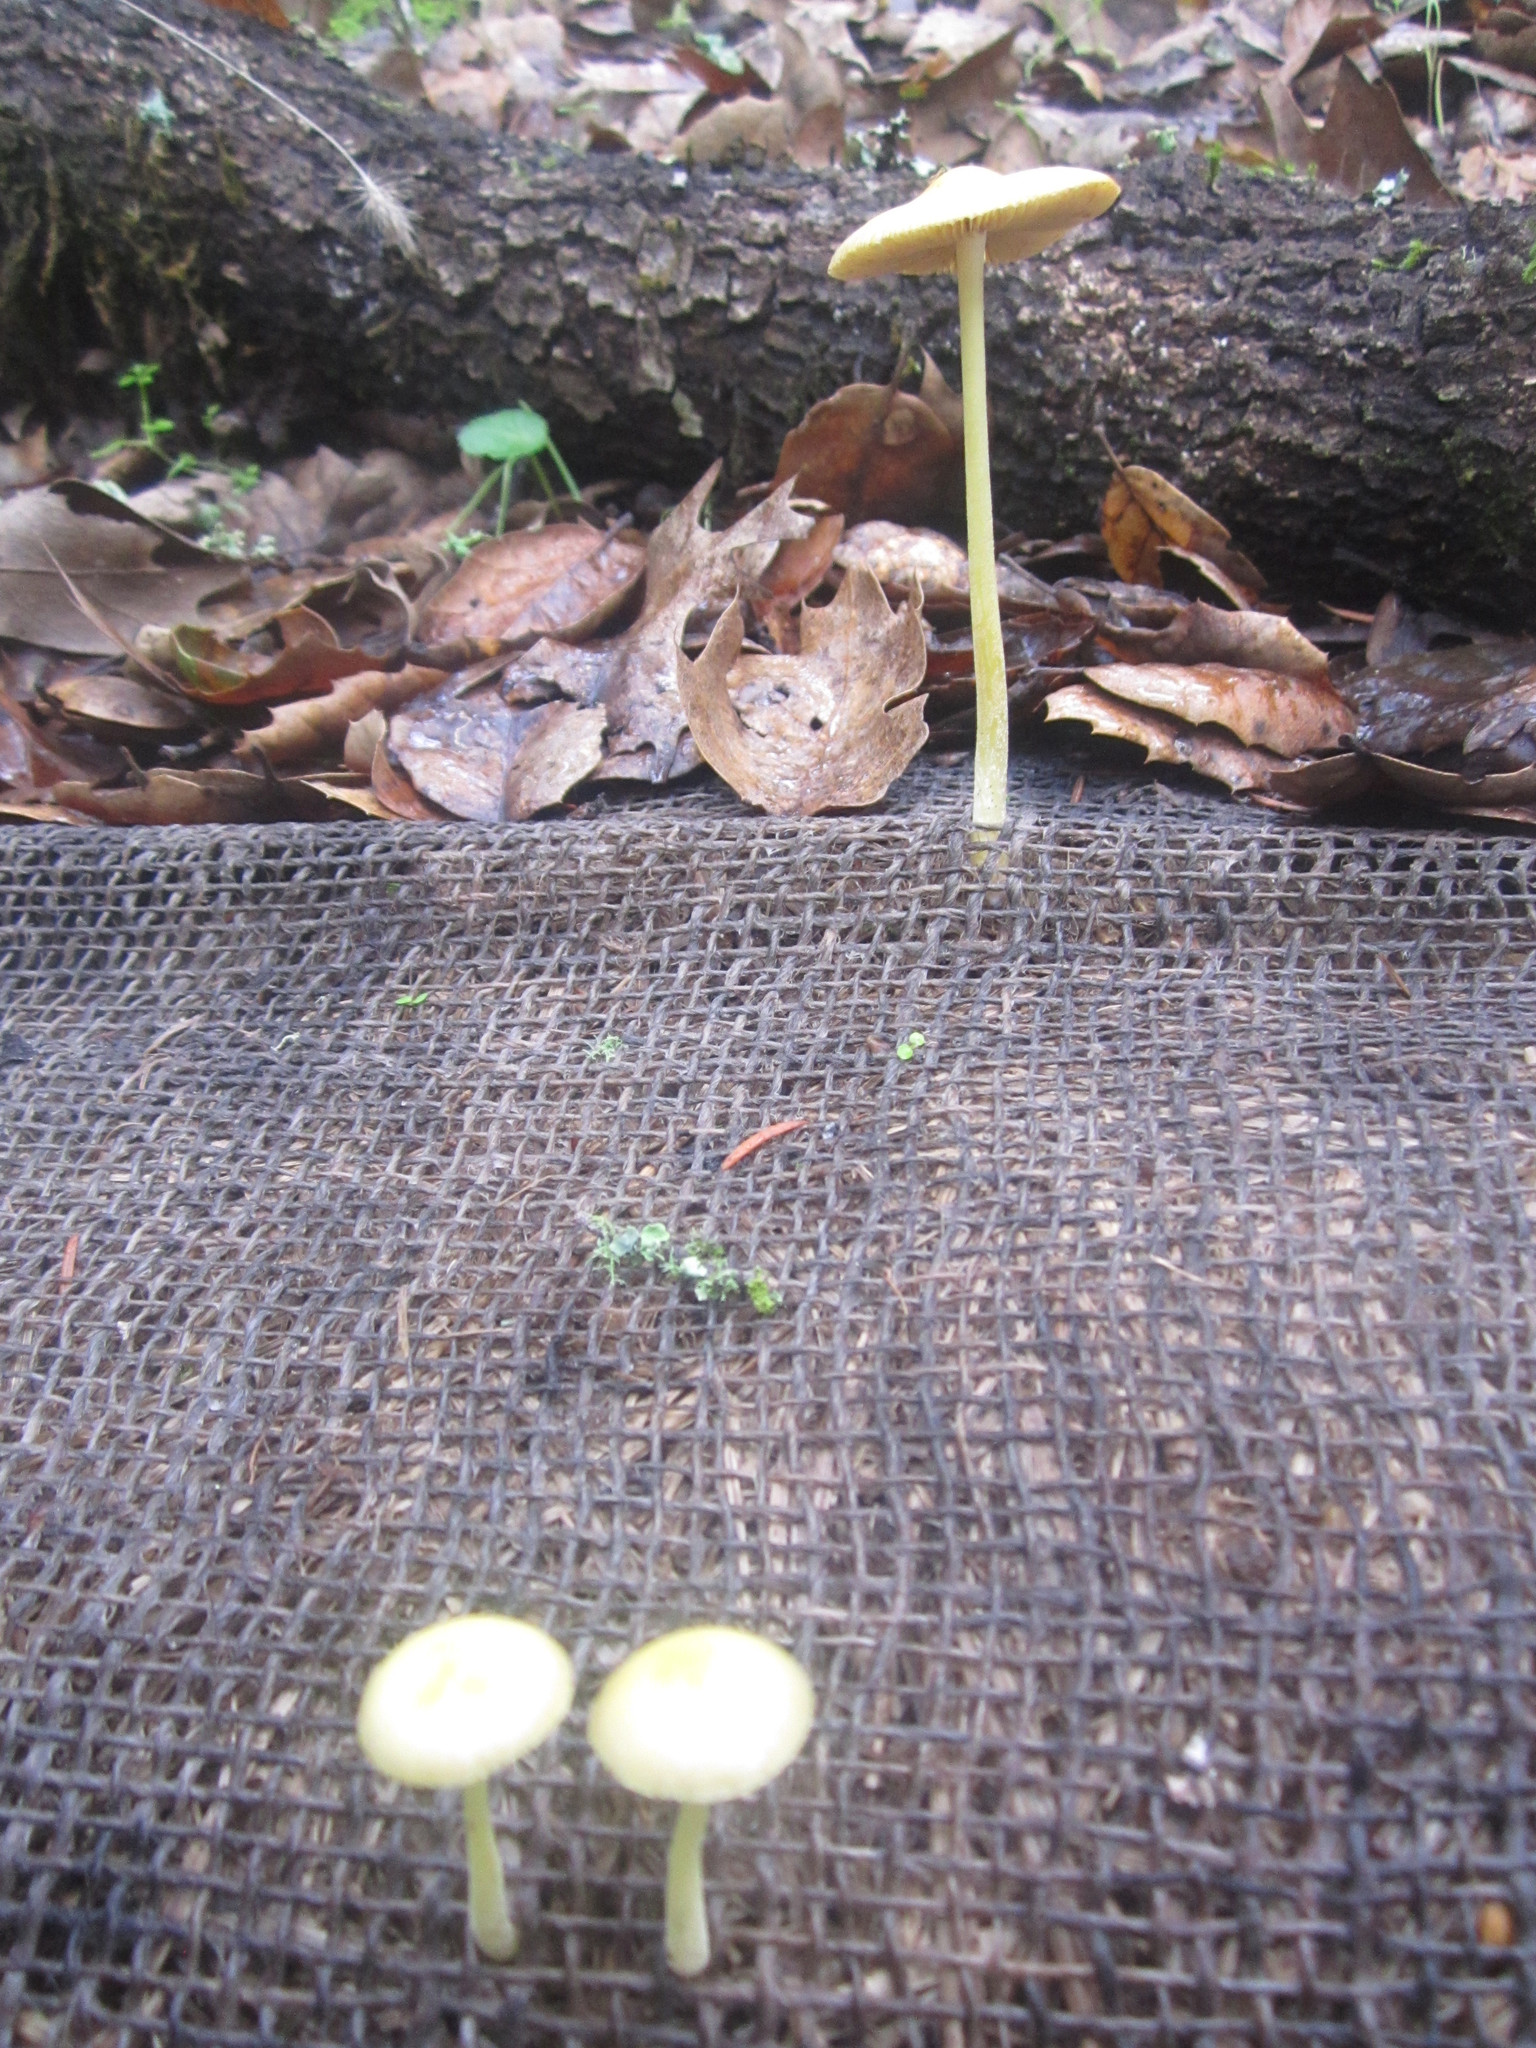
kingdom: Fungi
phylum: Basidiomycota
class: Agaricomycetes
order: Agaricales
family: Bolbitiaceae
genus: Bolbitius
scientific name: Bolbitius titubans
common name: Yellow fieldcap
